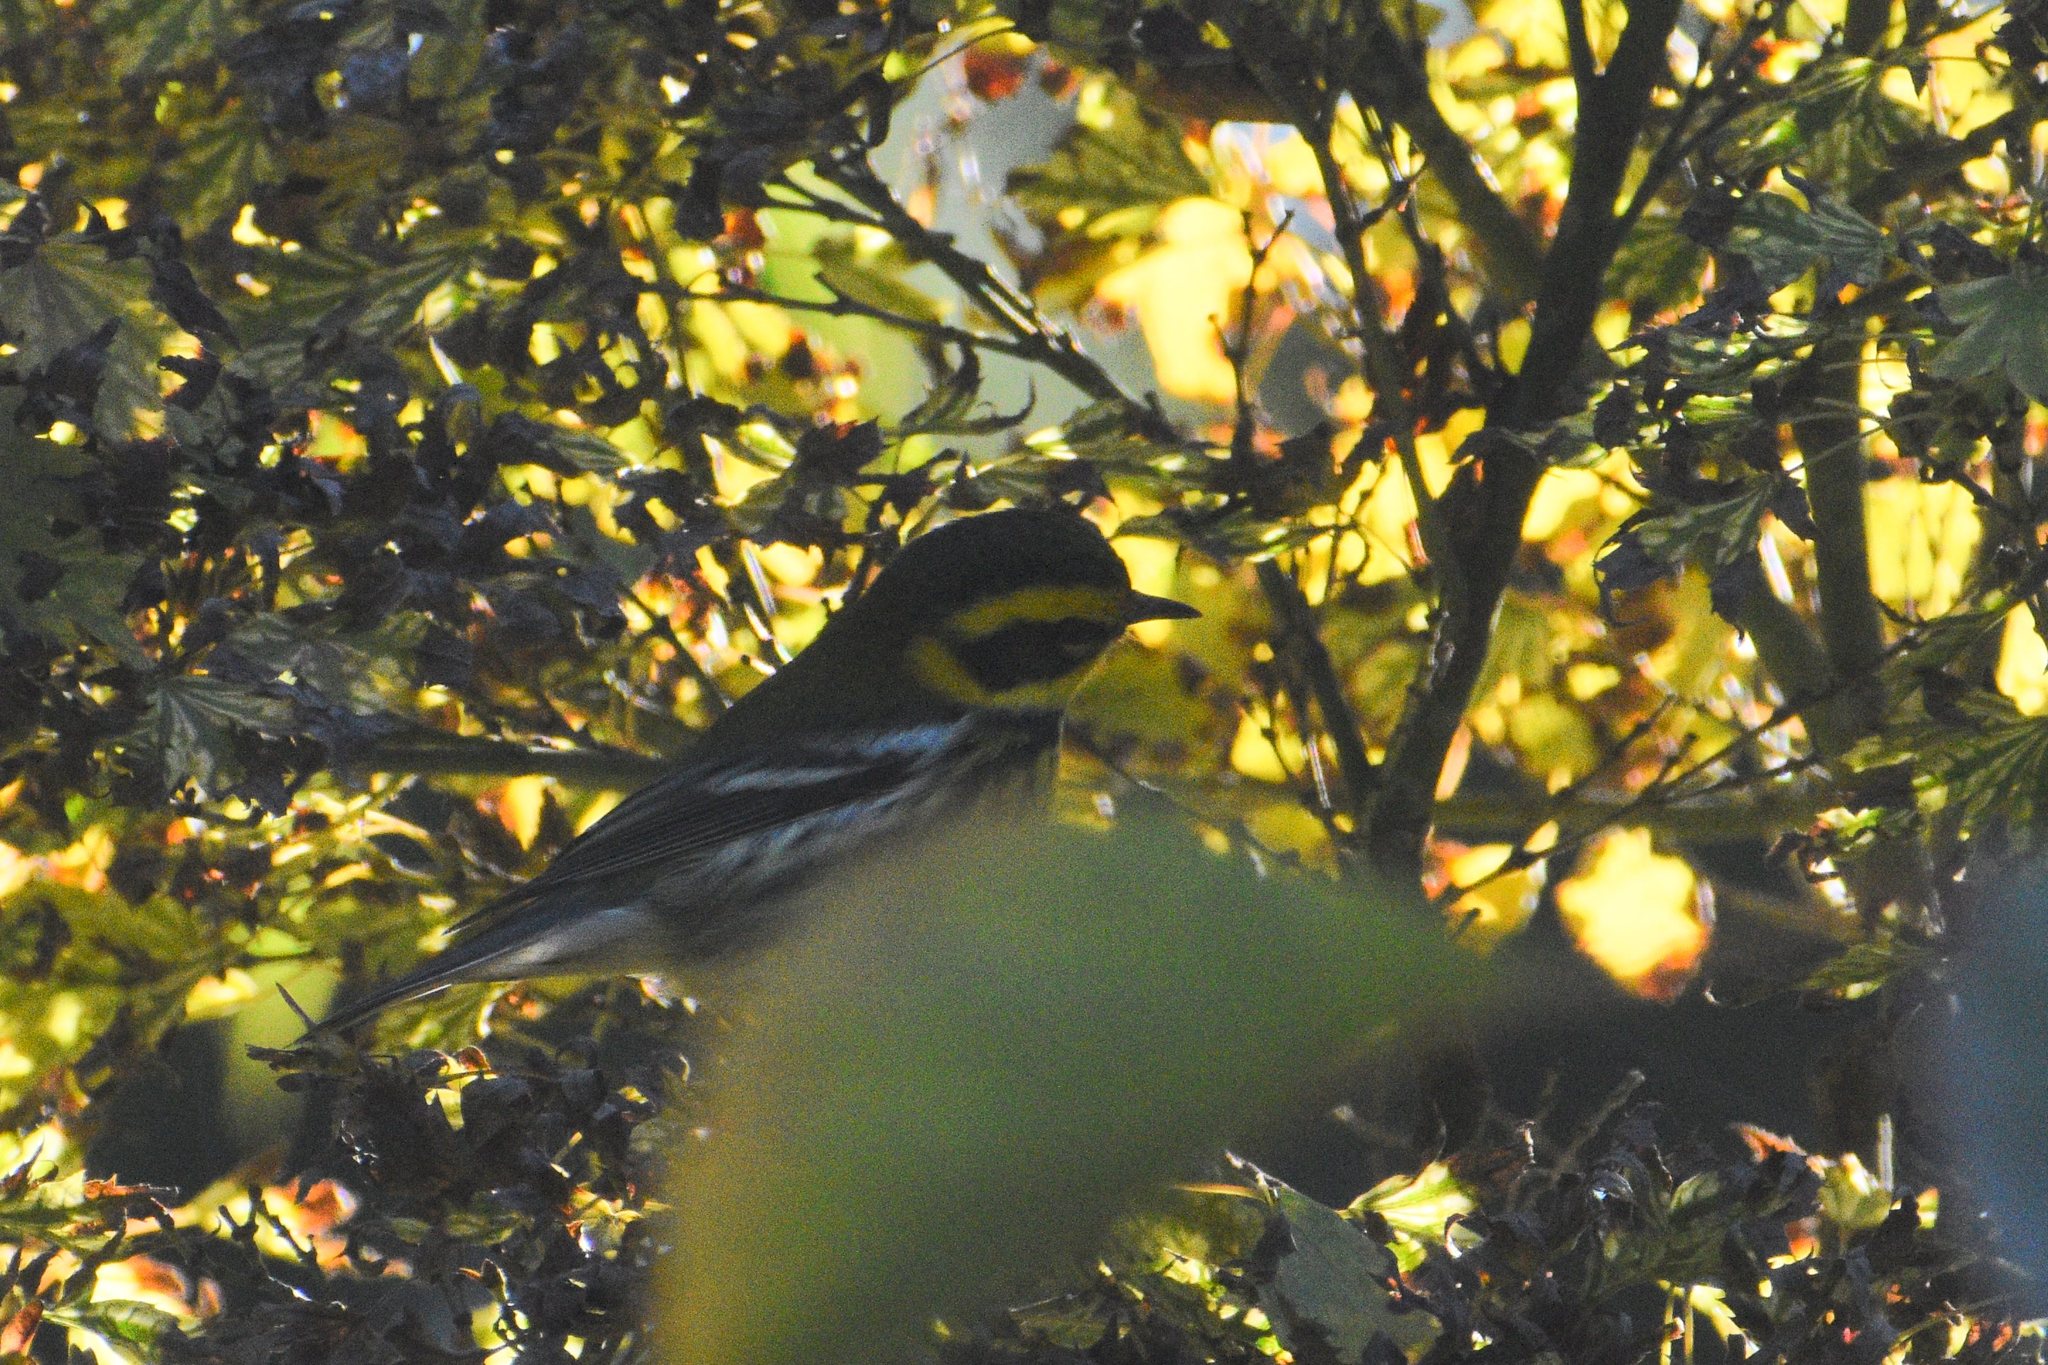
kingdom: Animalia
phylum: Chordata
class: Aves
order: Passeriformes
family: Parulidae
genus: Setophaga
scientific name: Setophaga townsendi
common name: Townsend's warbler
